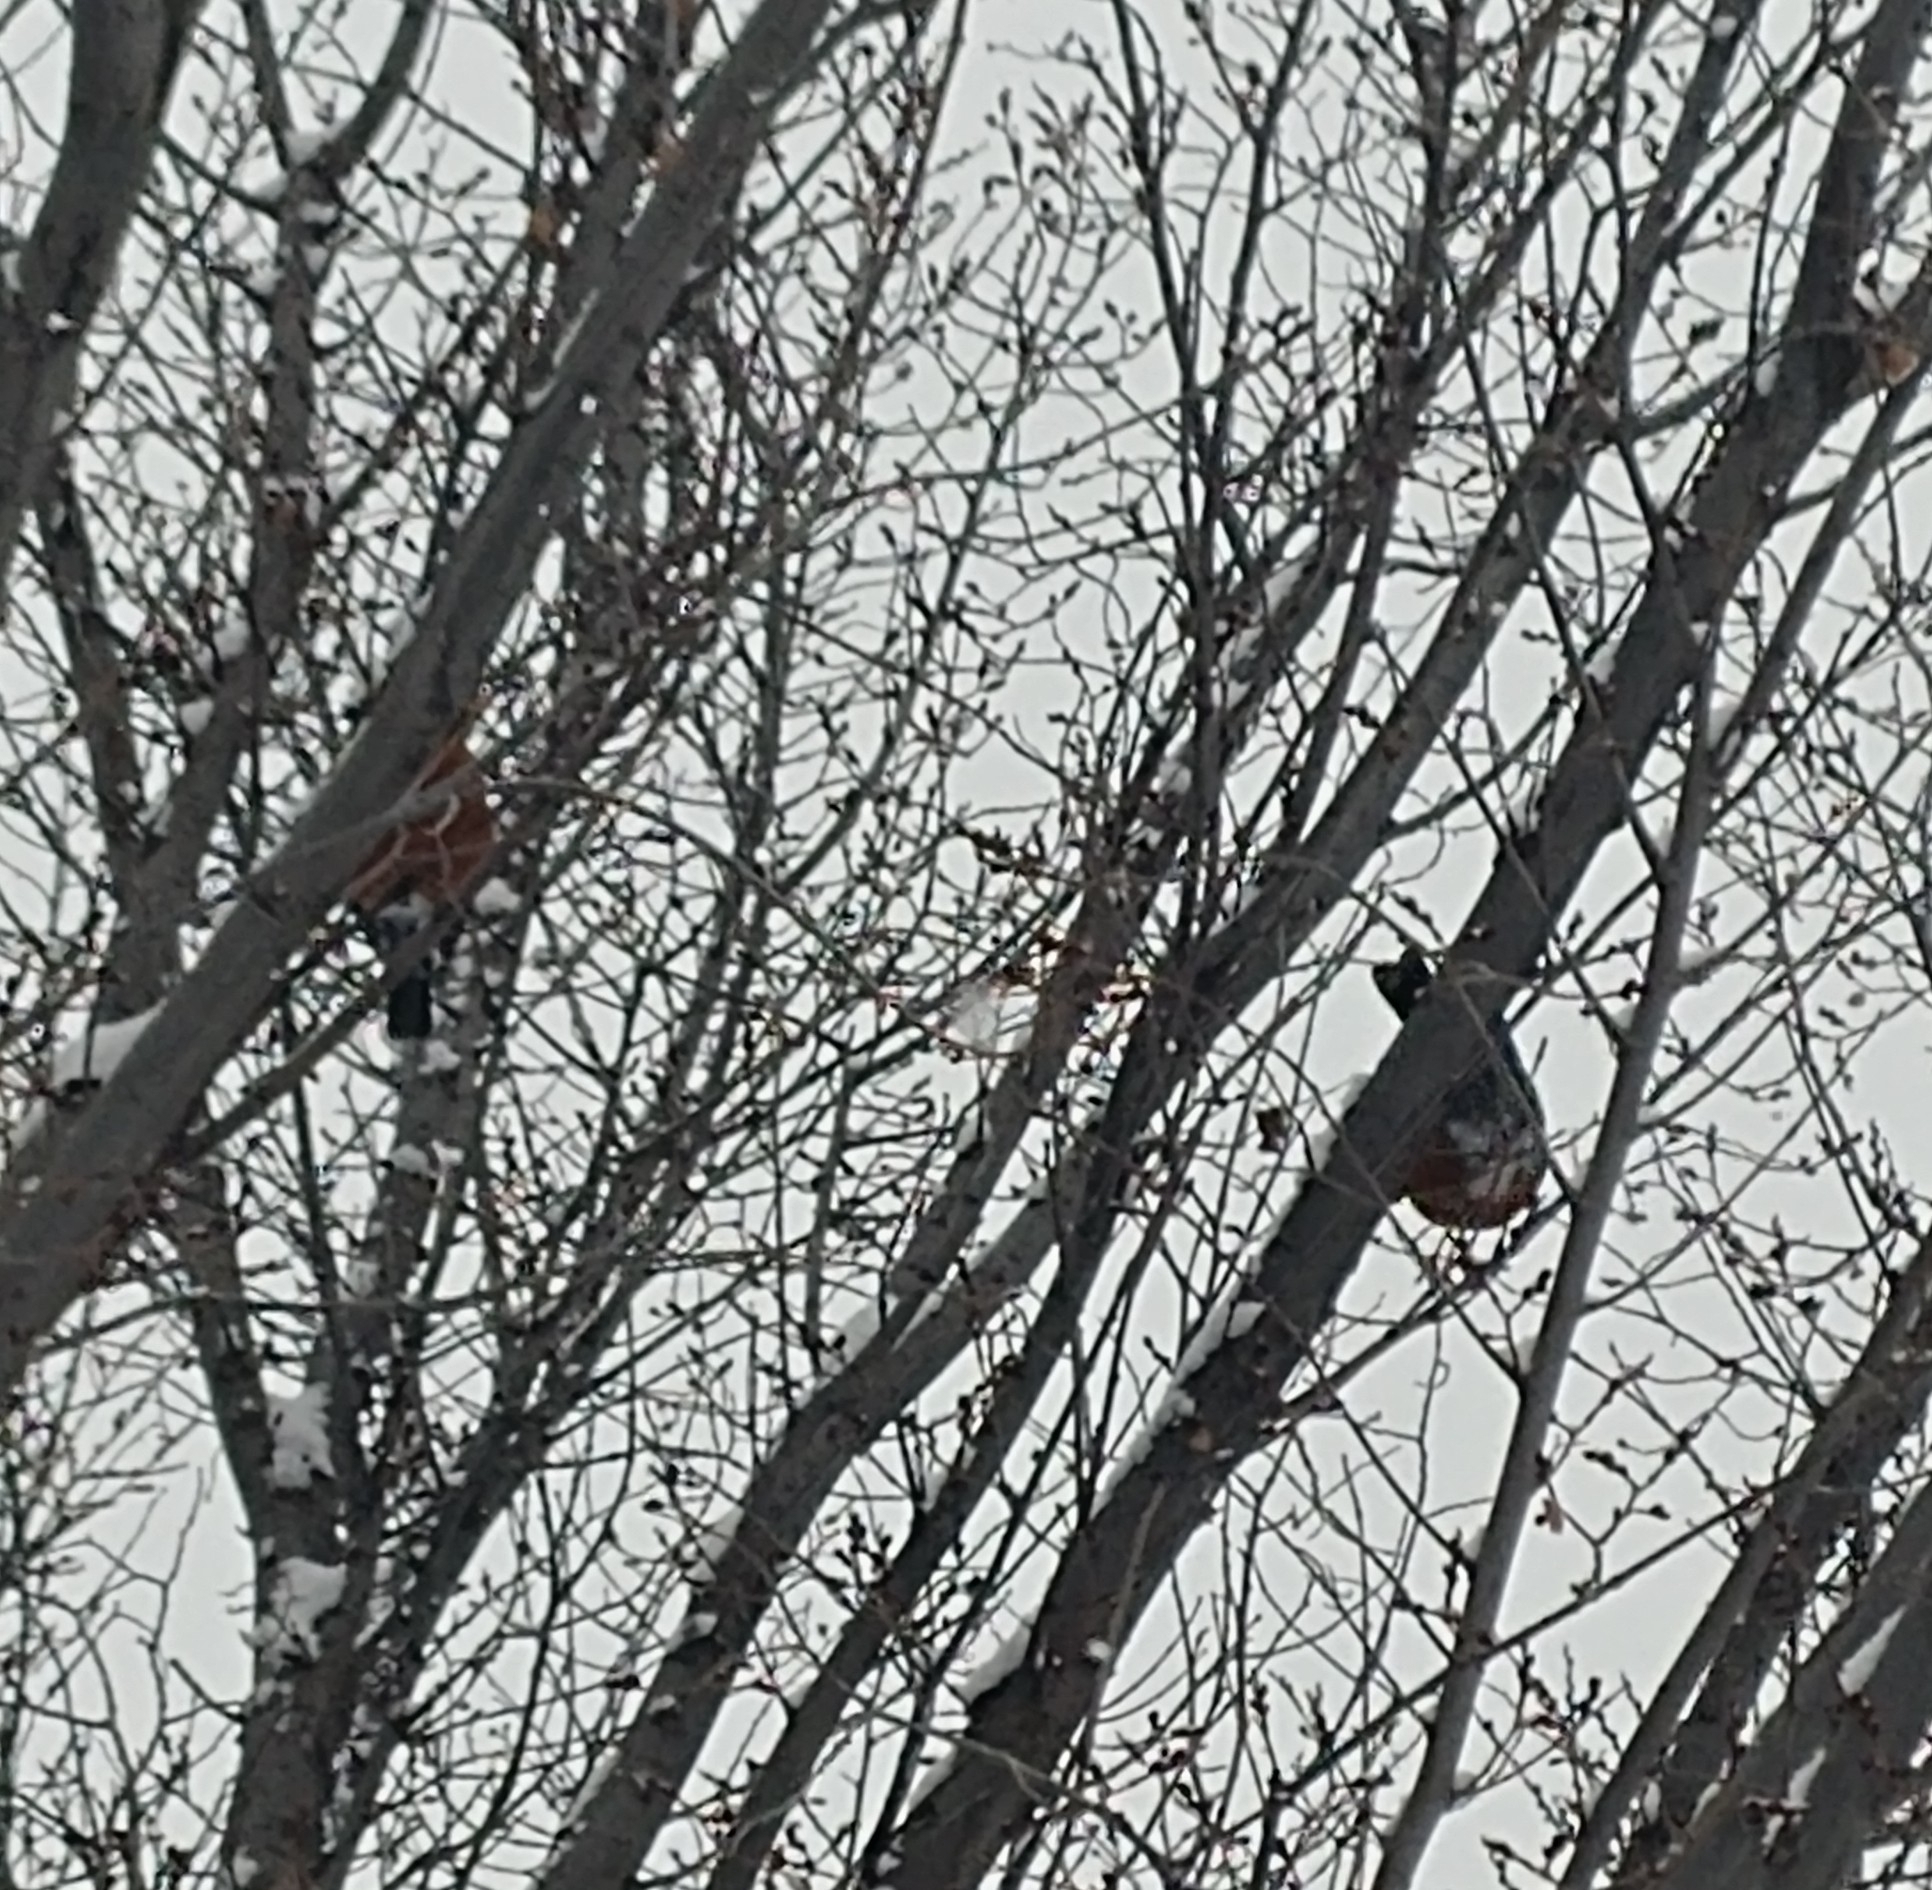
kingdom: Animalia
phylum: Chordata
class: Aves
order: Passeriformes
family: Turdidae
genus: Turdus
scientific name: Turdus migratorius
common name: American robin
